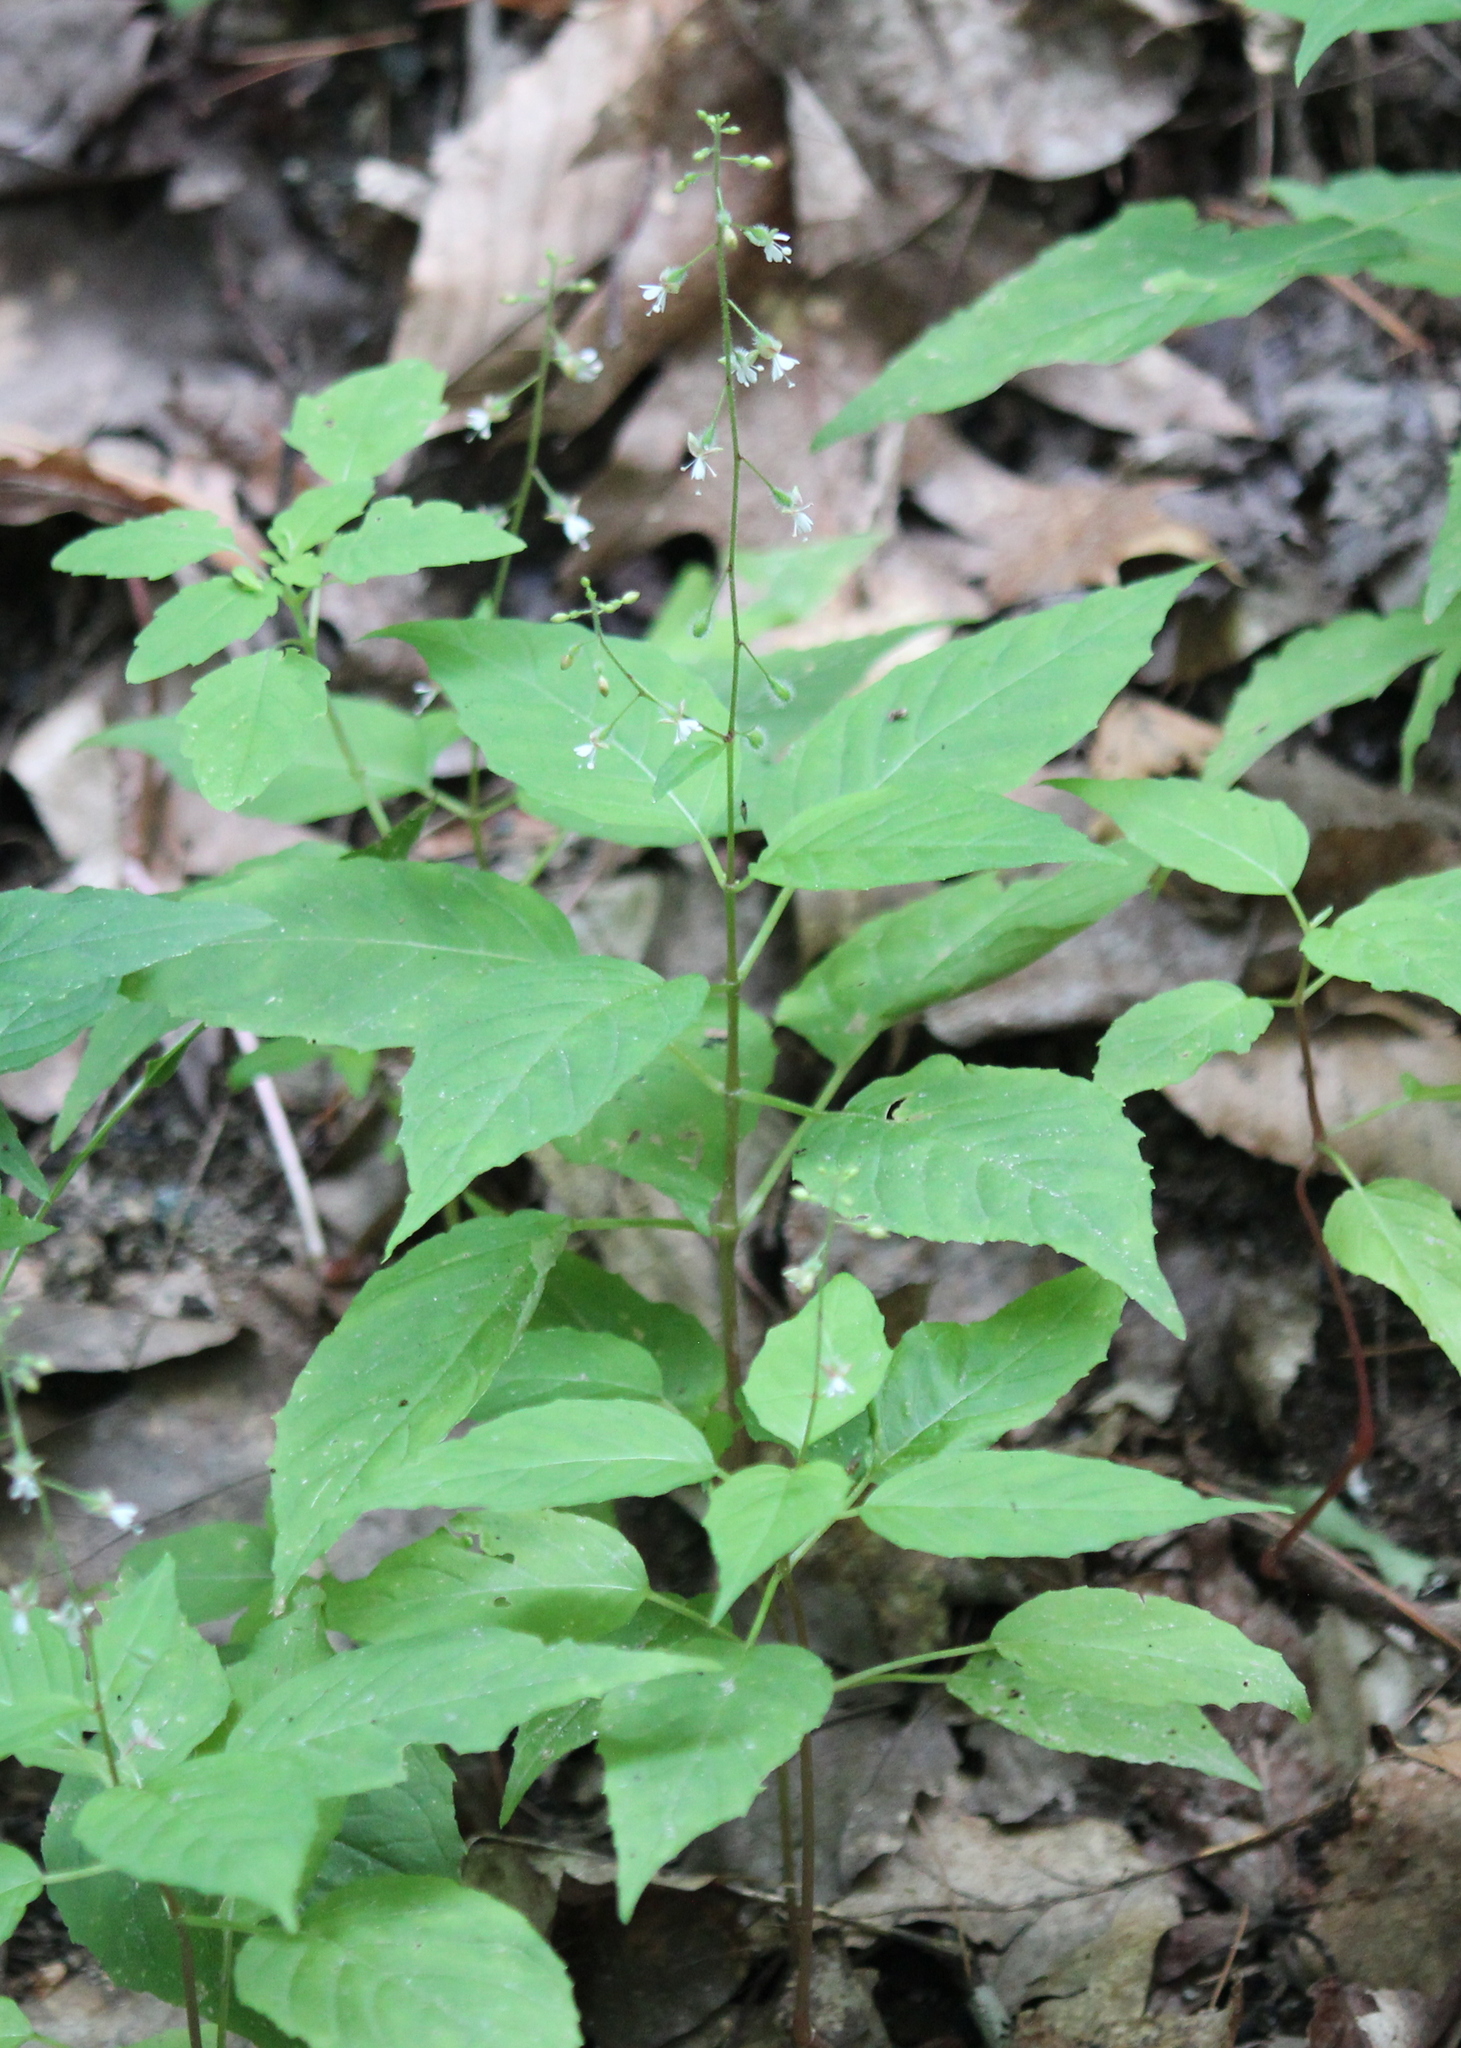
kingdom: Plantae
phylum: Tracheophyta
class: Magnoliopsida
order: Myrtales
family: Onagraceae
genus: Circaea
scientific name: Circaea canadensis
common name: Broad-leaved enchanter's nightshade
